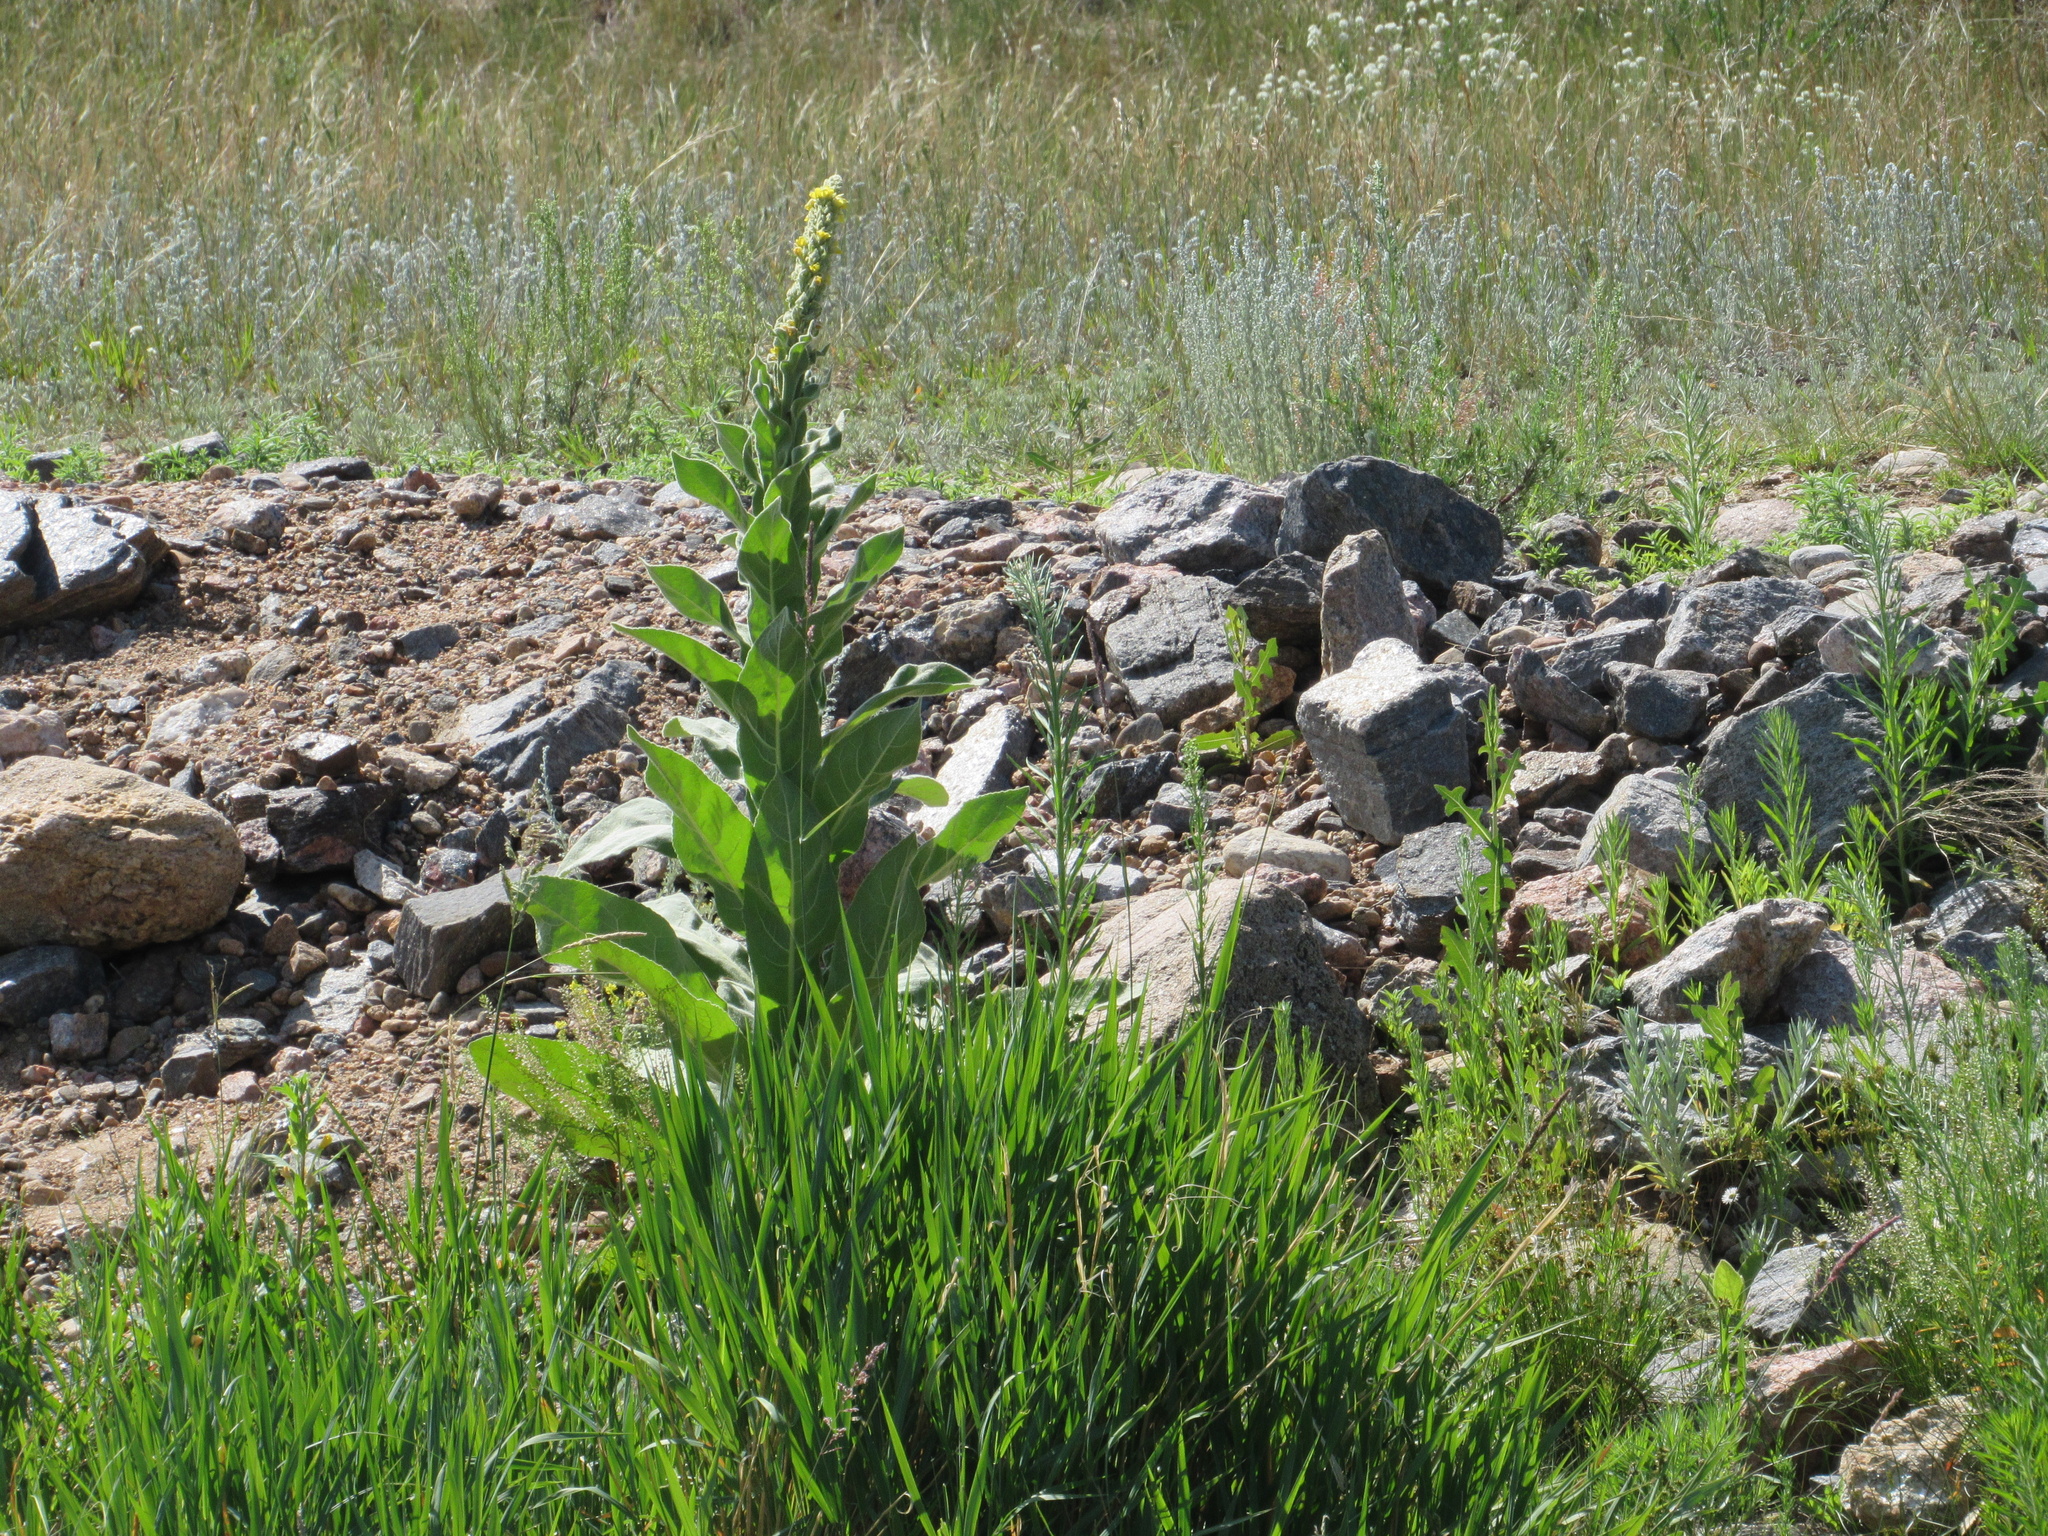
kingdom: Plantae
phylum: Tracheophyta
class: Magnoliopsida
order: Lamiales
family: Scrophulariaceae
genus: Verbascum
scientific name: Verbascum thapsus
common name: Common mullein
